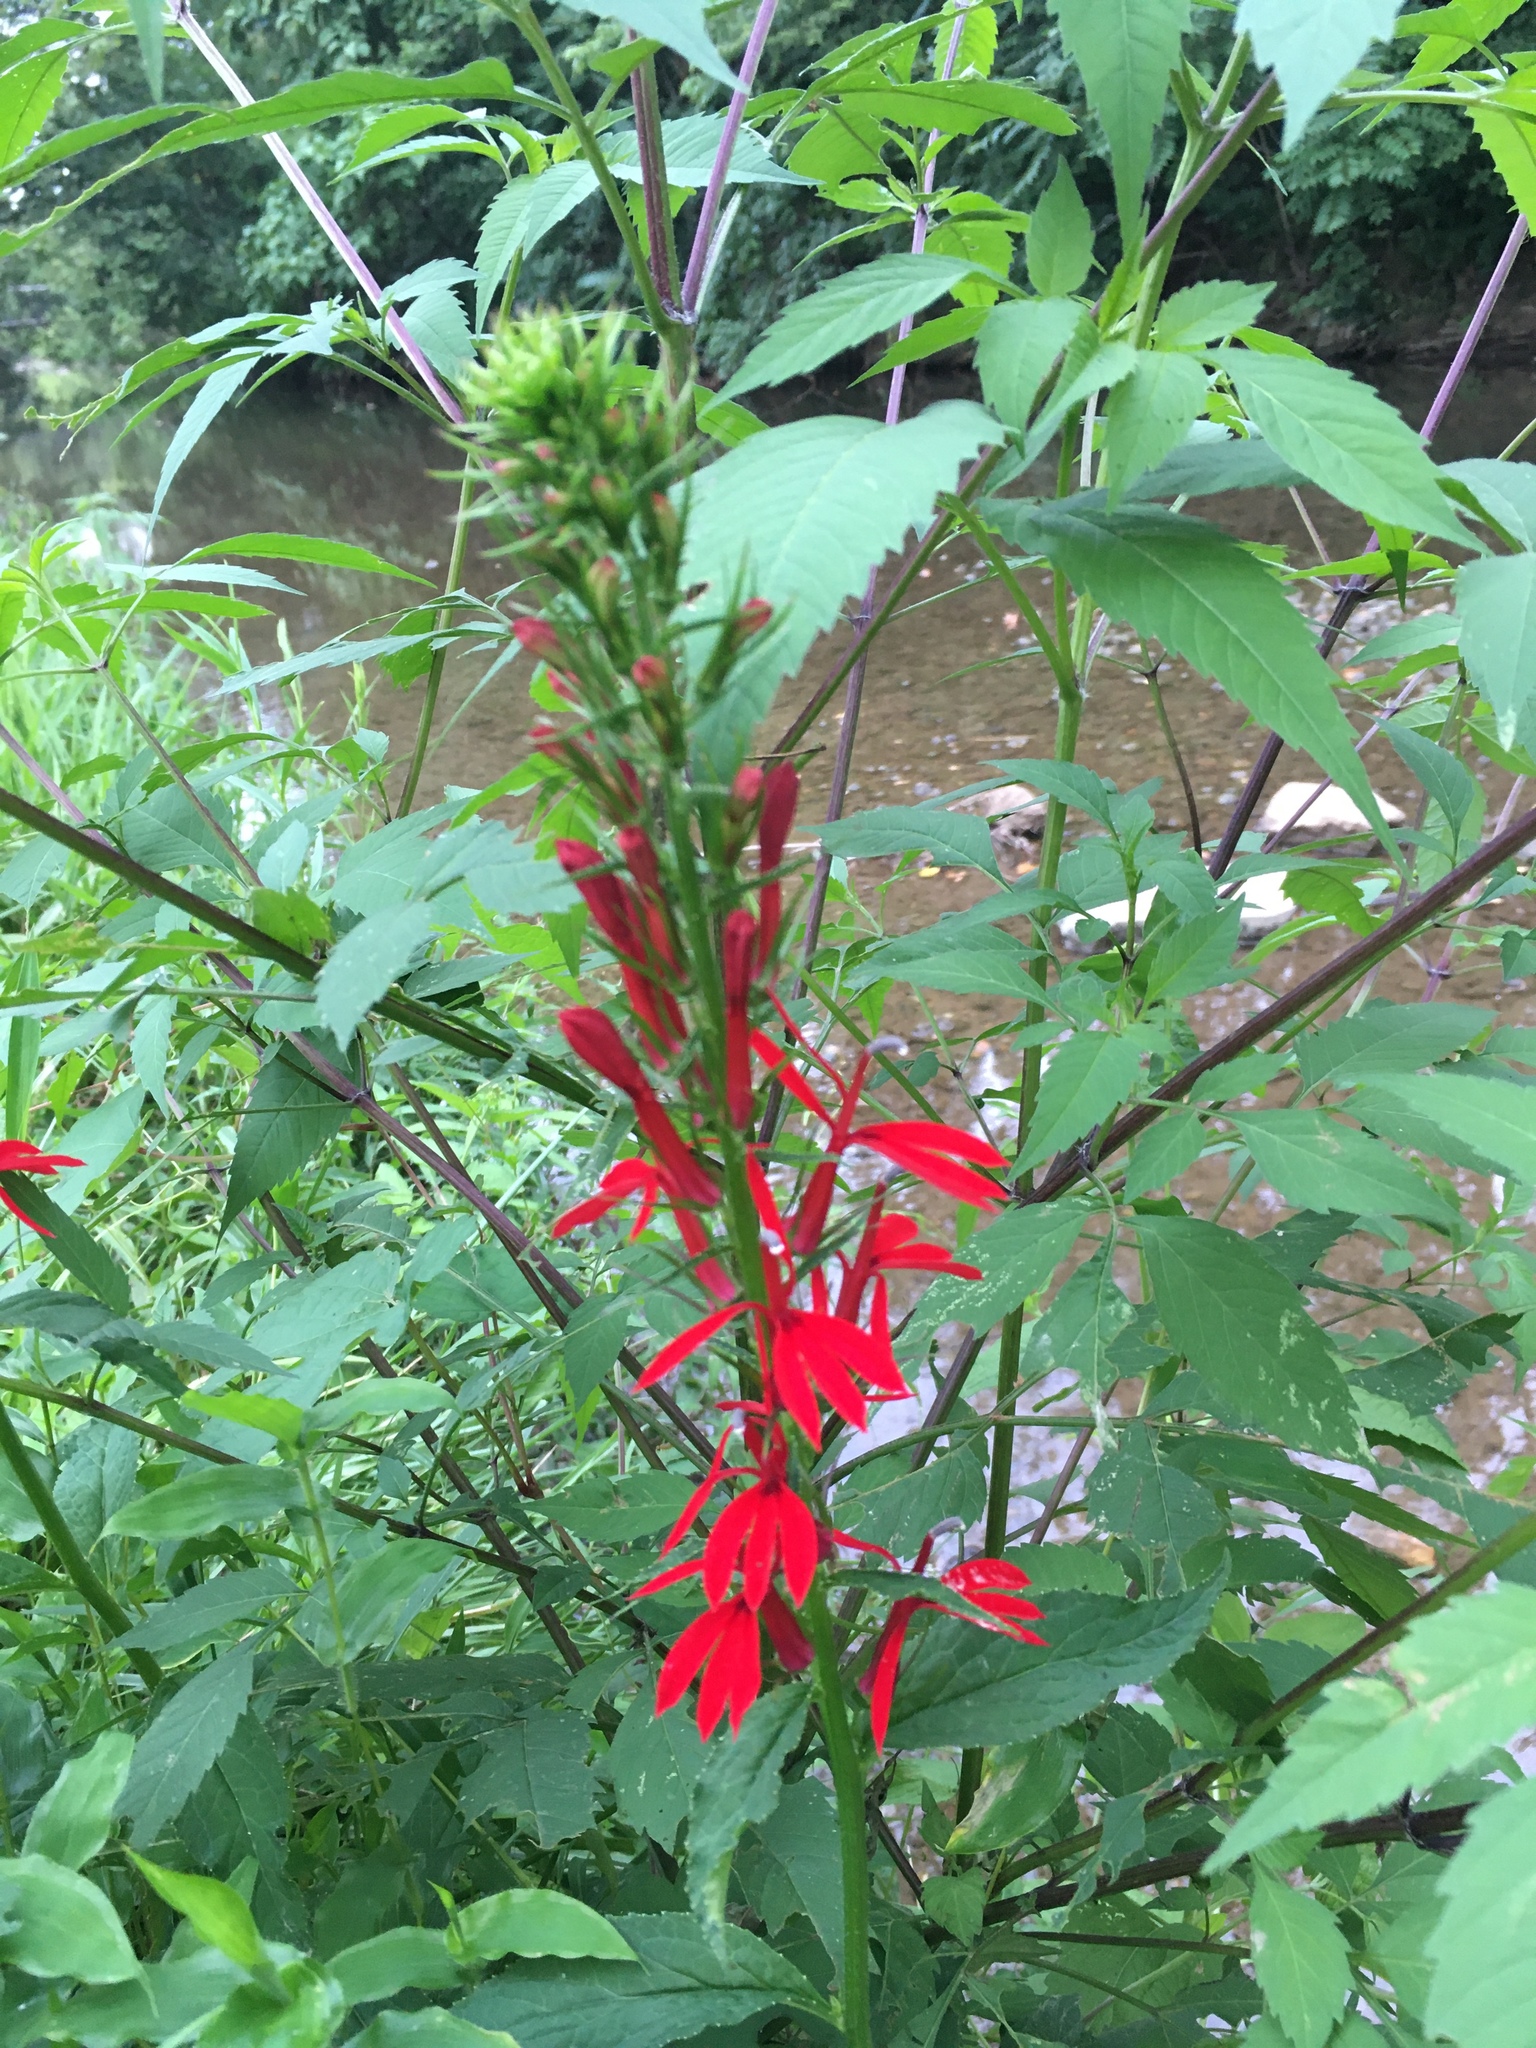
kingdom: Plantae
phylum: Tracheophyta
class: Magnoliopsida
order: Asterales
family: Campanulaceae
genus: Lobelia
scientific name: Lobelia cardinalis
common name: Cardinal flower
